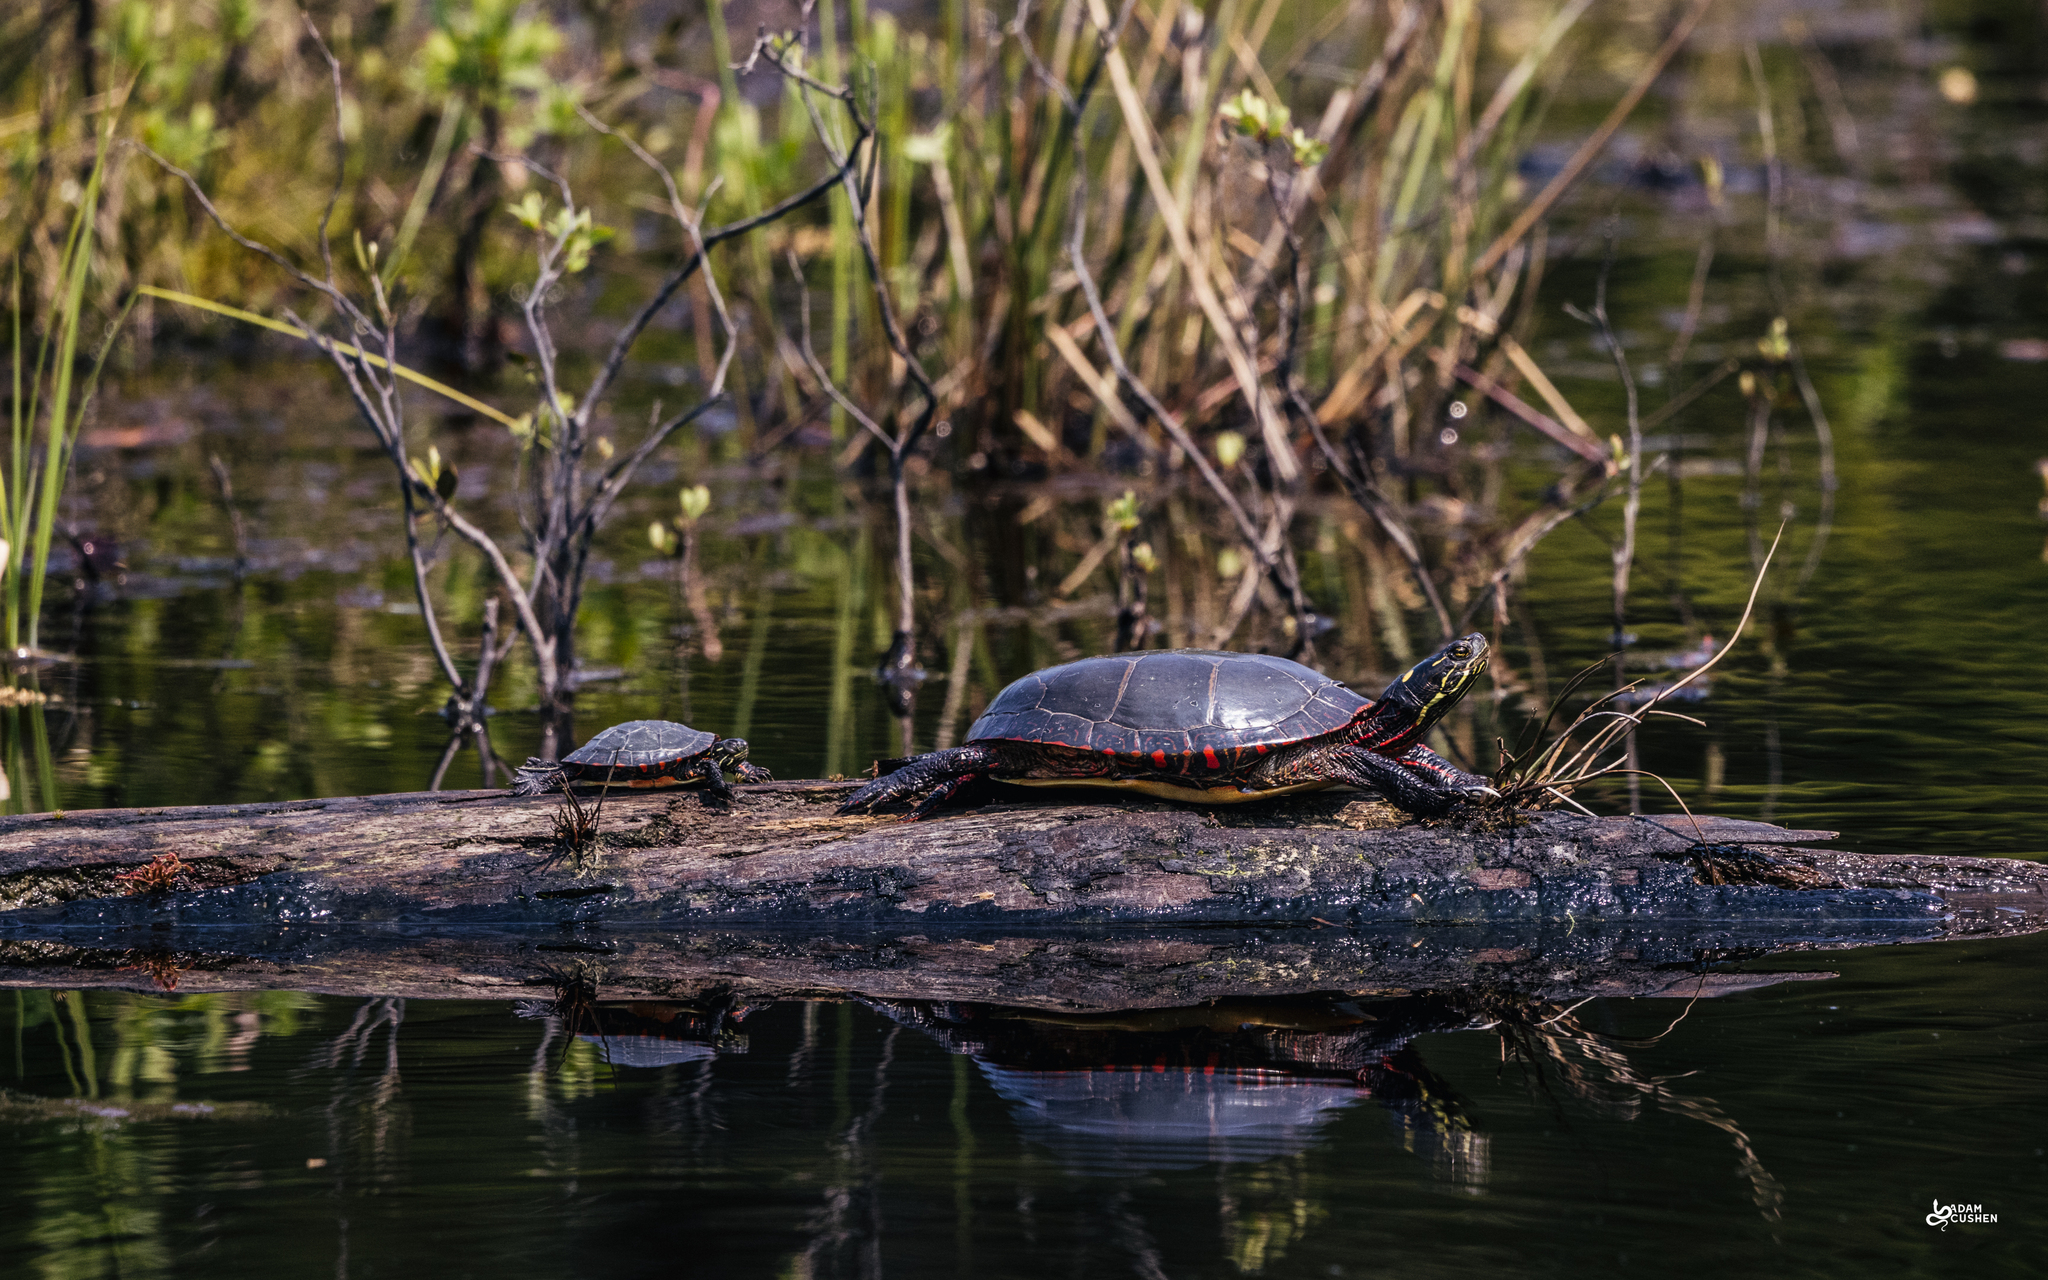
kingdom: Animalia
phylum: Chordata
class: Testudines
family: Emydidae
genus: Chrysemys
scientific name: Chrysemys picta
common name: Painted turtle
